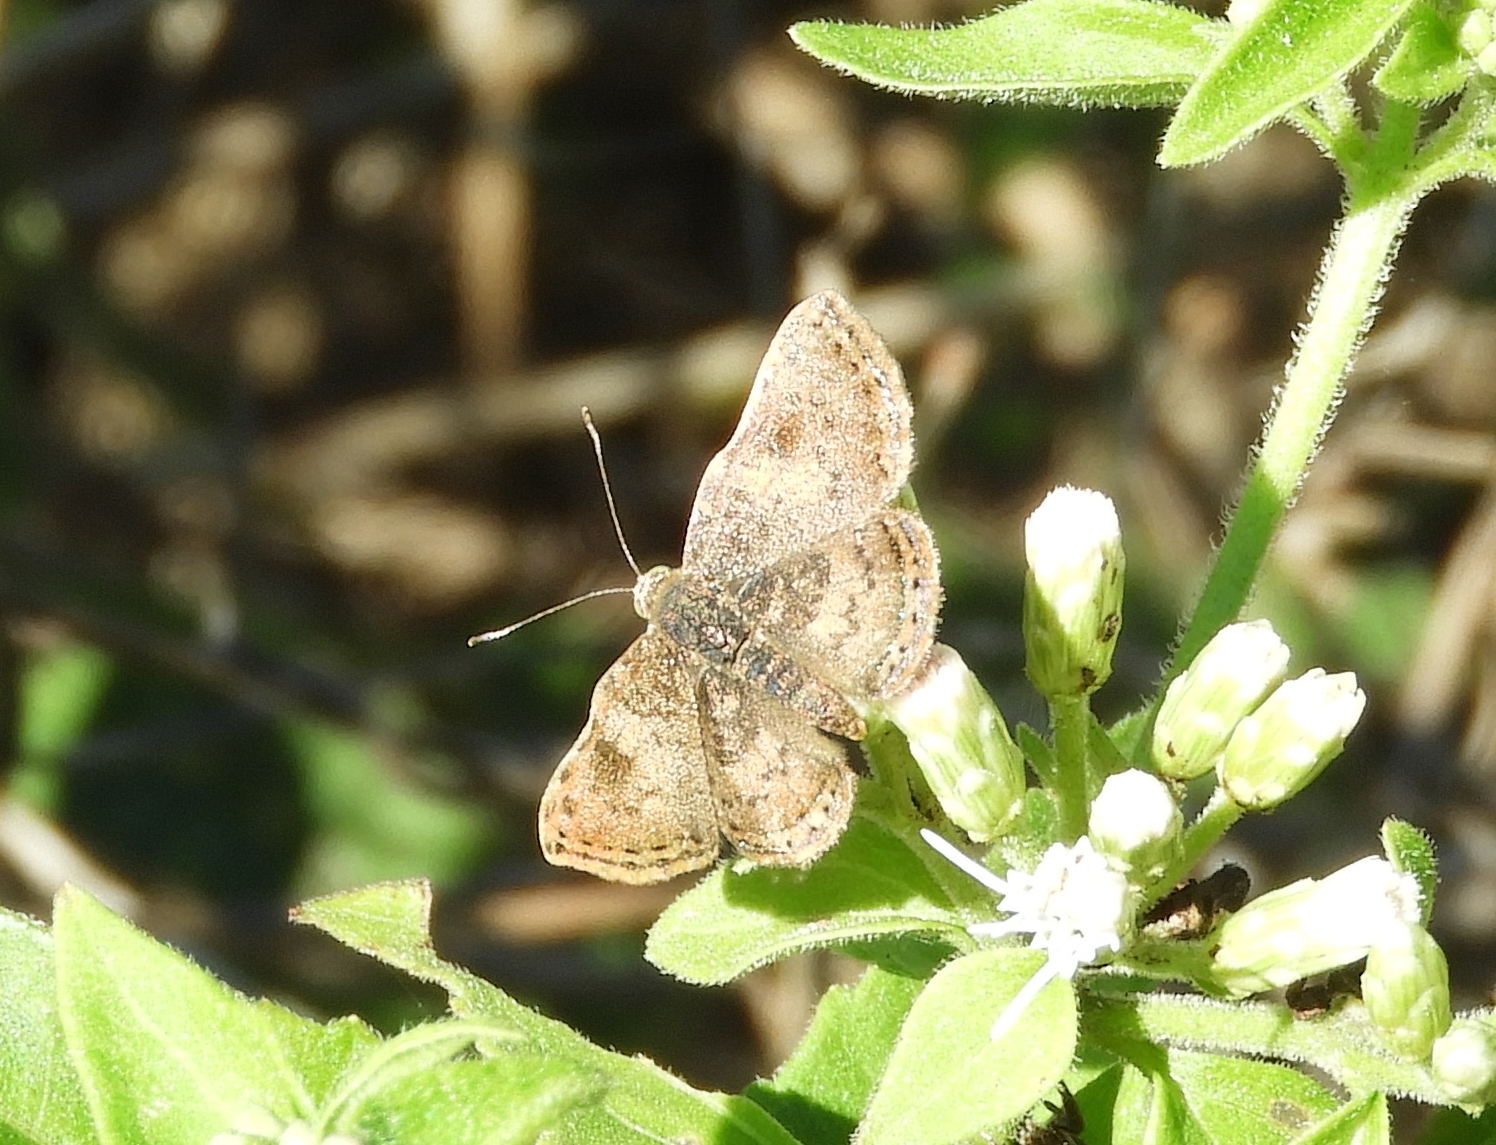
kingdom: Animalia
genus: Caria
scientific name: Caria ino
